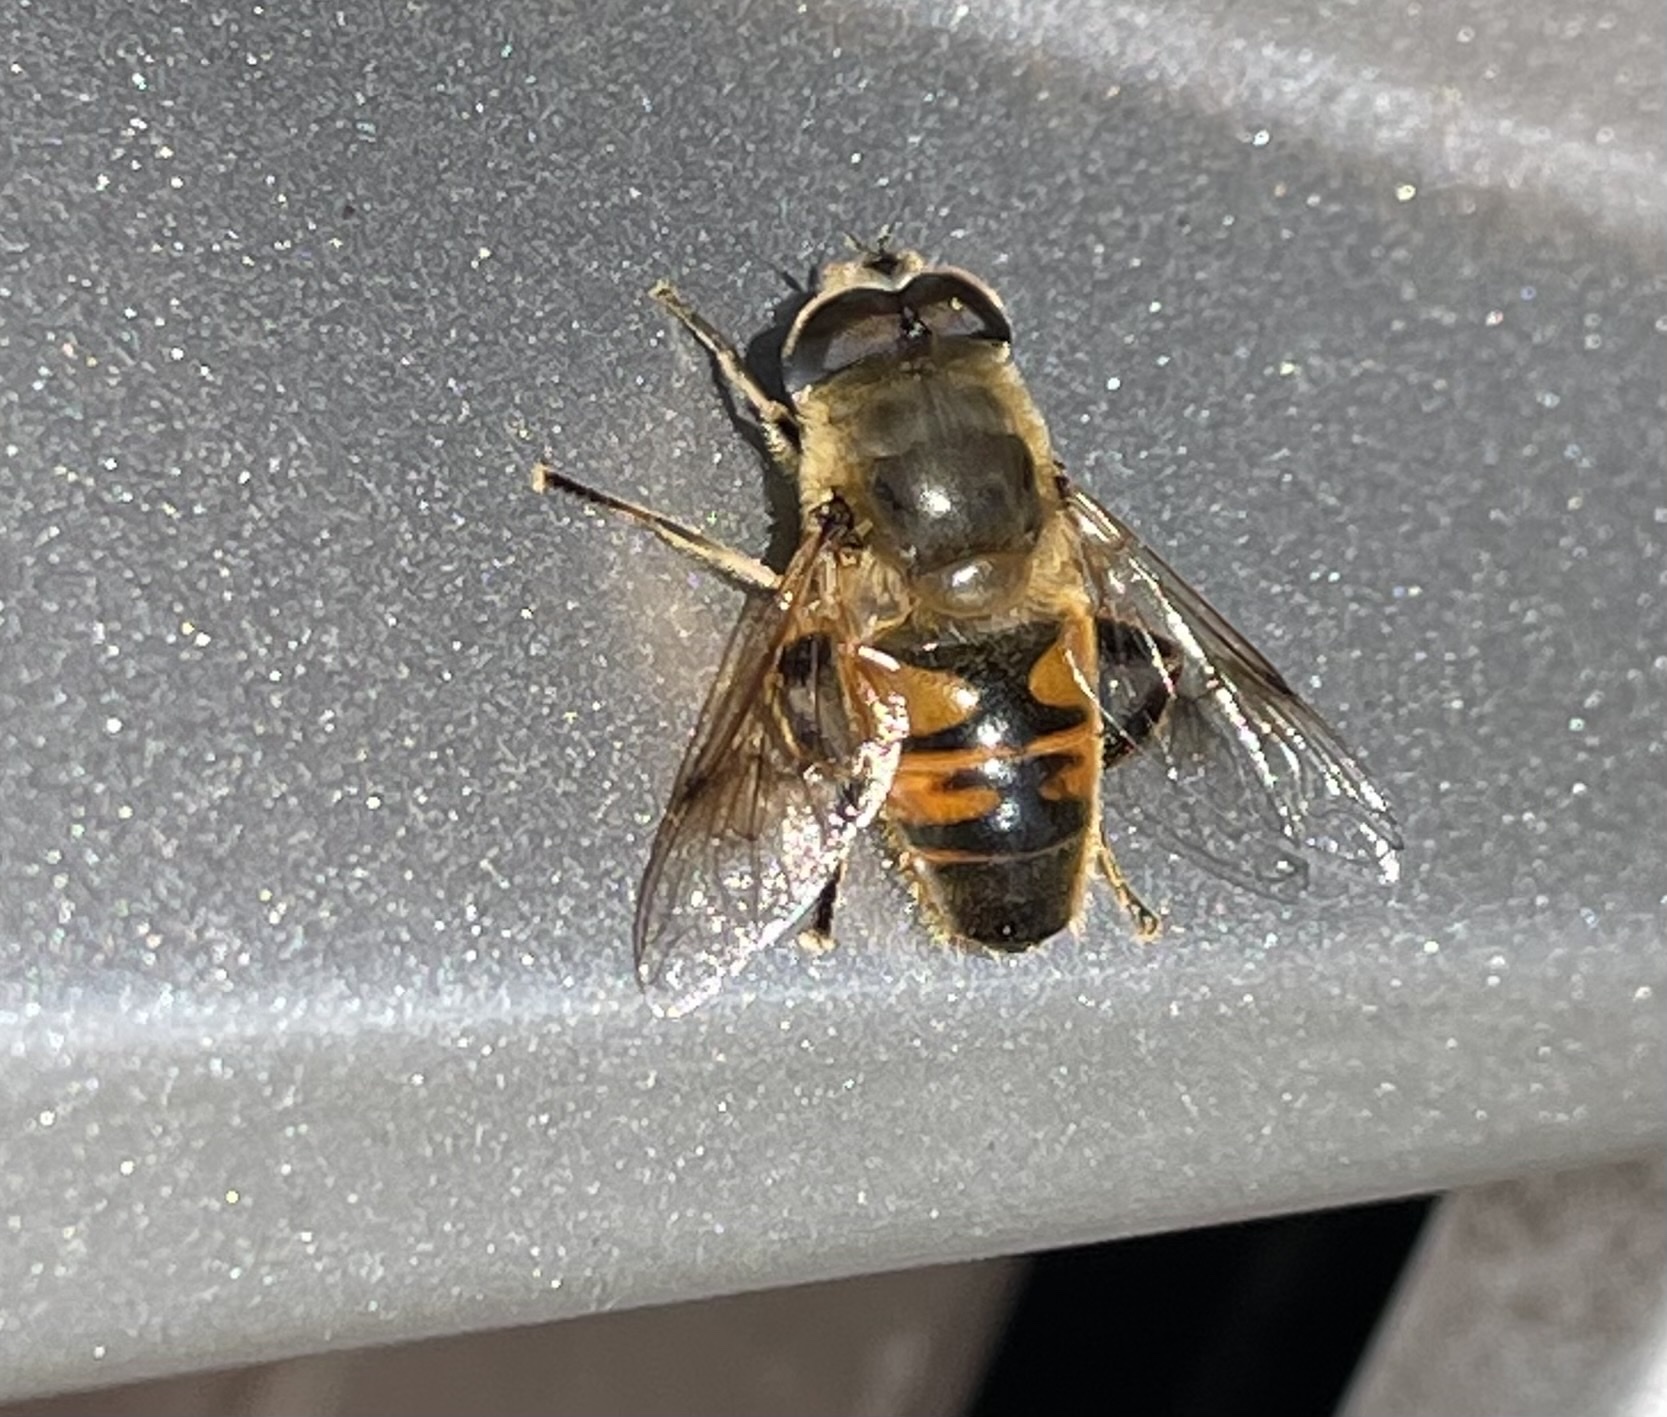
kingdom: Animalia
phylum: Arthropoda
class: Insecta
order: Diptera
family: Syrphidae
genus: Eristalis
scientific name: Eristalis tenax
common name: Drone fly
